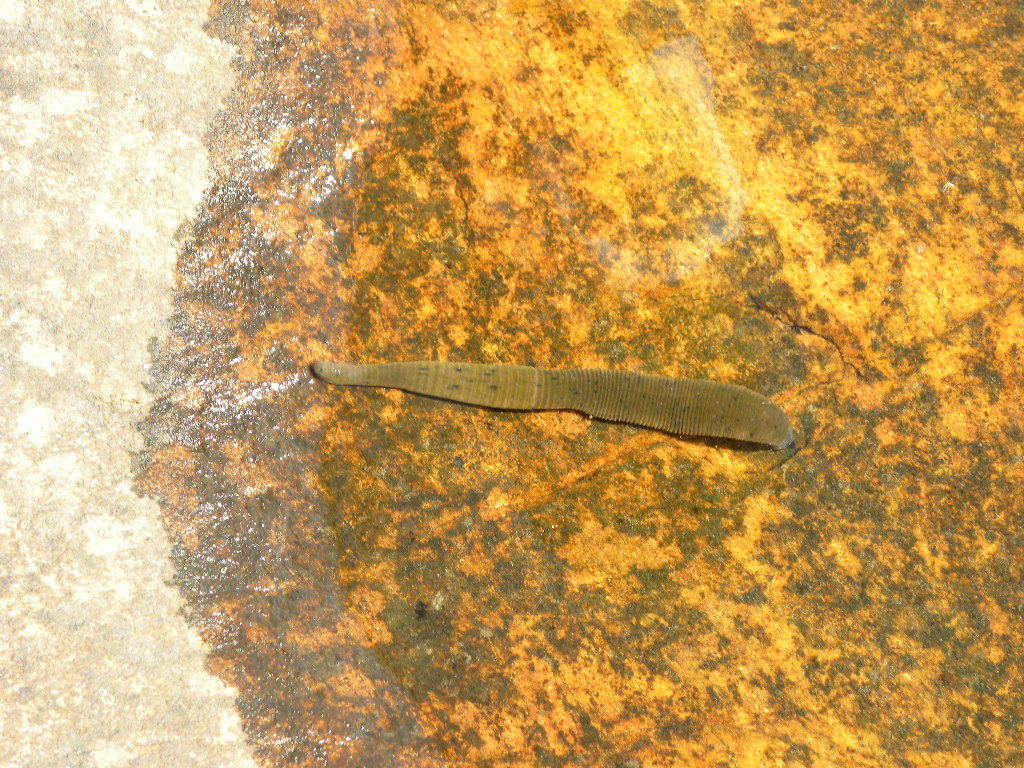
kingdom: Animalia
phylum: Annelida
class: Clitellata
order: Arhynchobdellida
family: Erpobdellidae
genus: Nephelopsis
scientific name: Nephelopsis obscura
